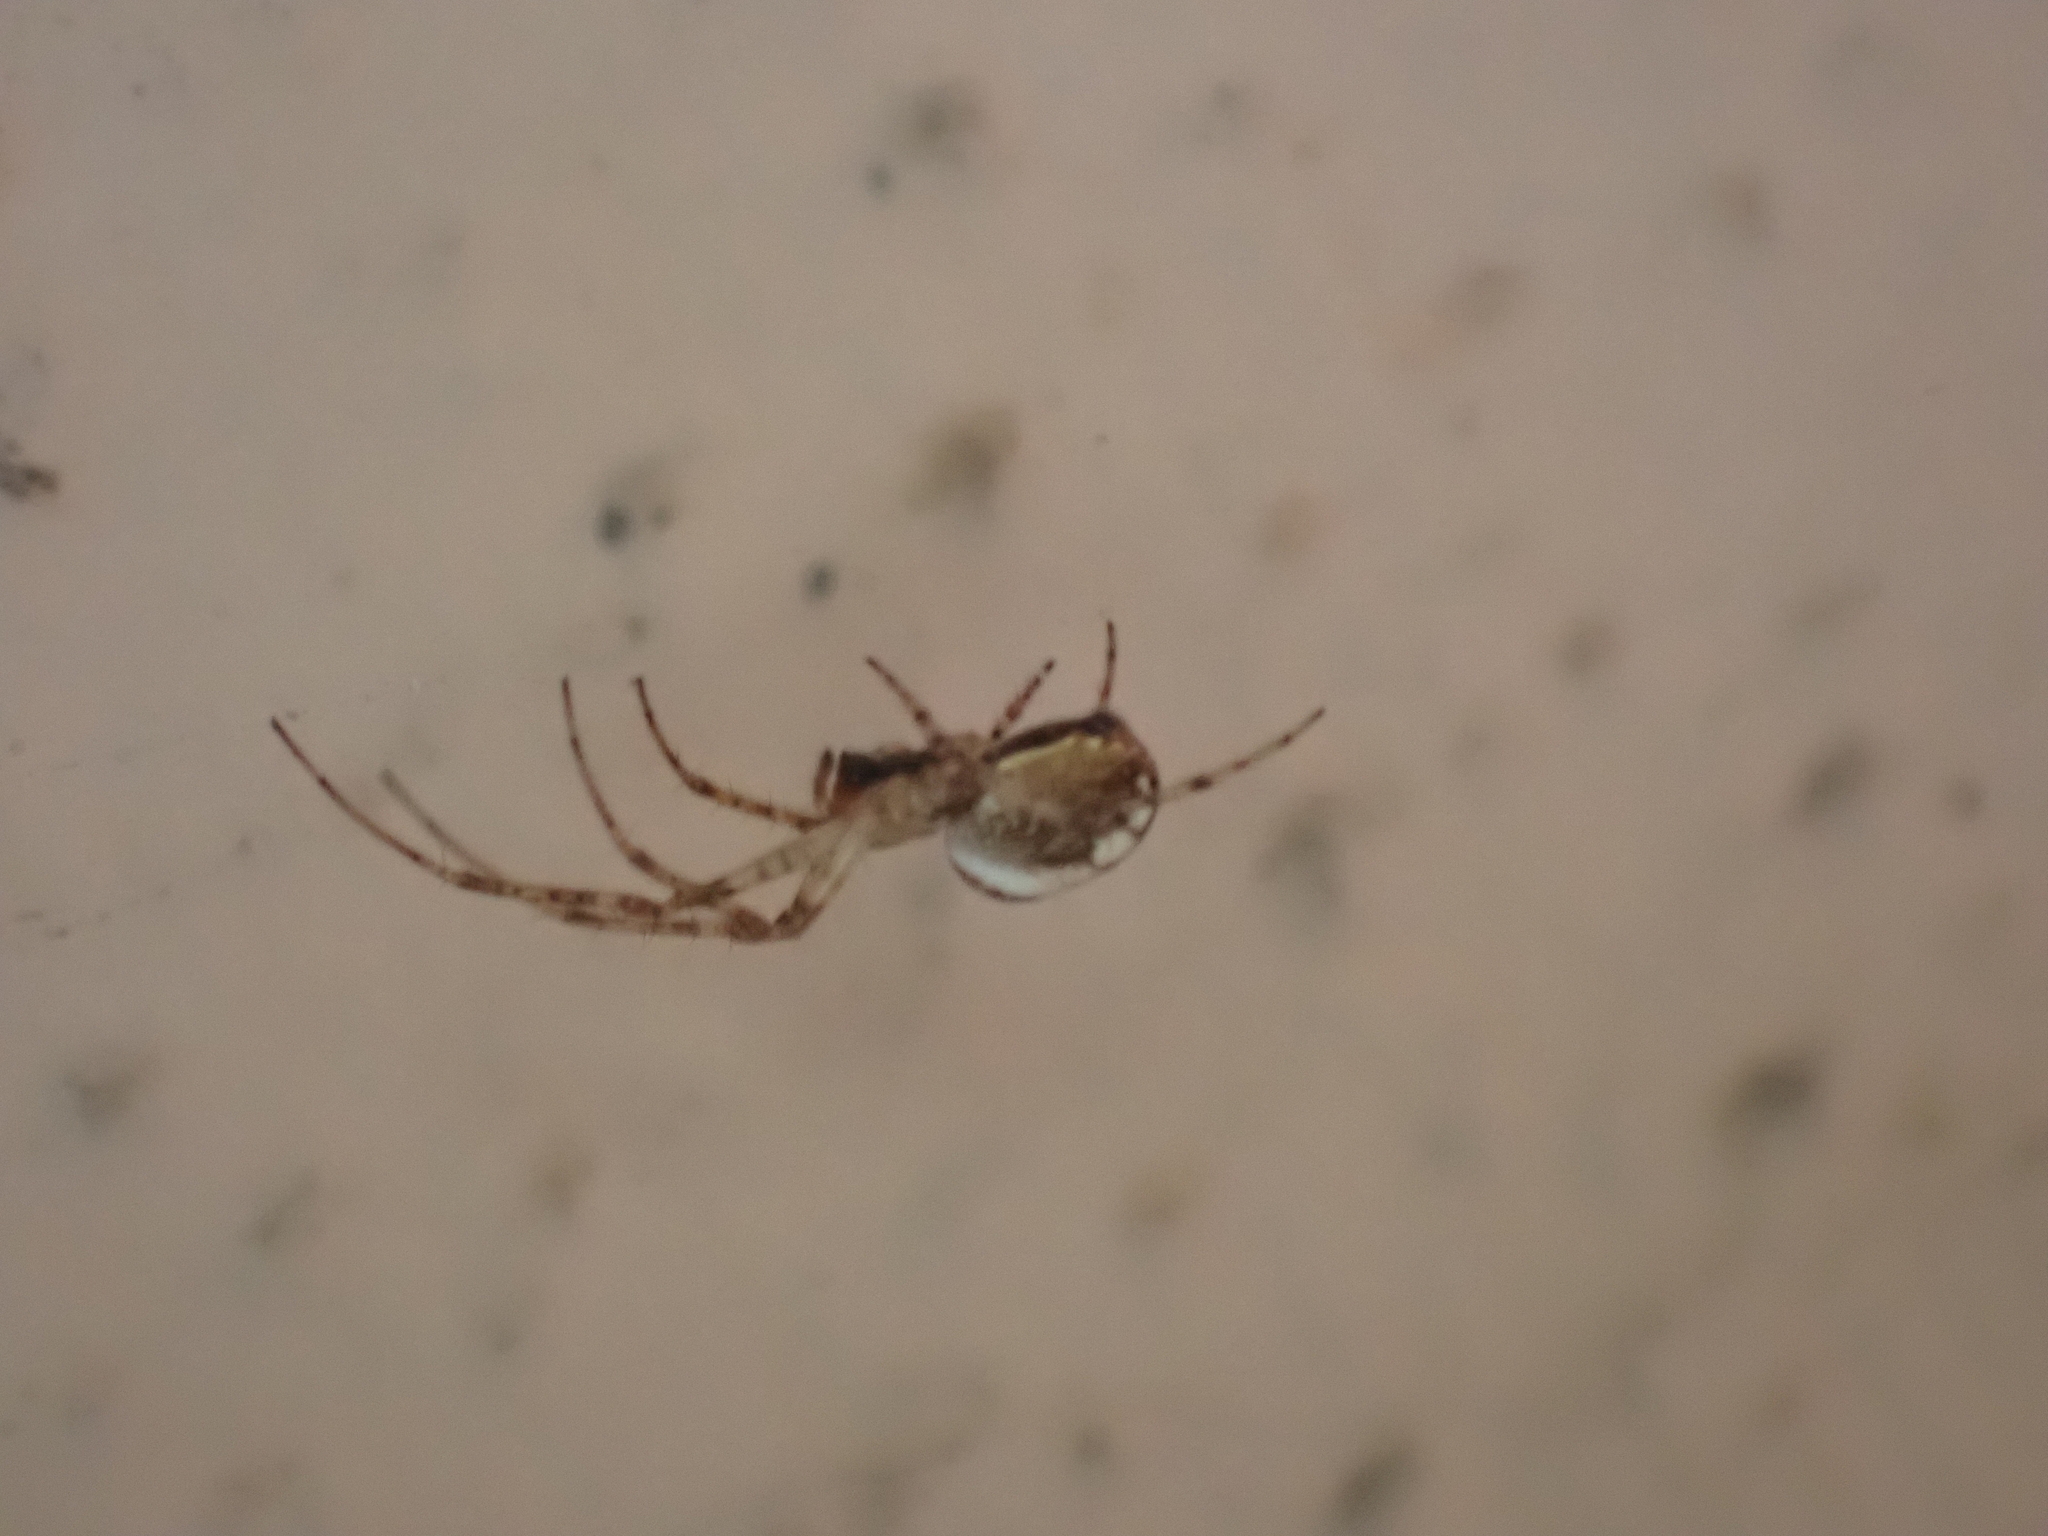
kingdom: Animalia
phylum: Arthropoda
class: Arachnida
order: Araneae
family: Tetragnathidae
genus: Metellina
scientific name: Metellina
